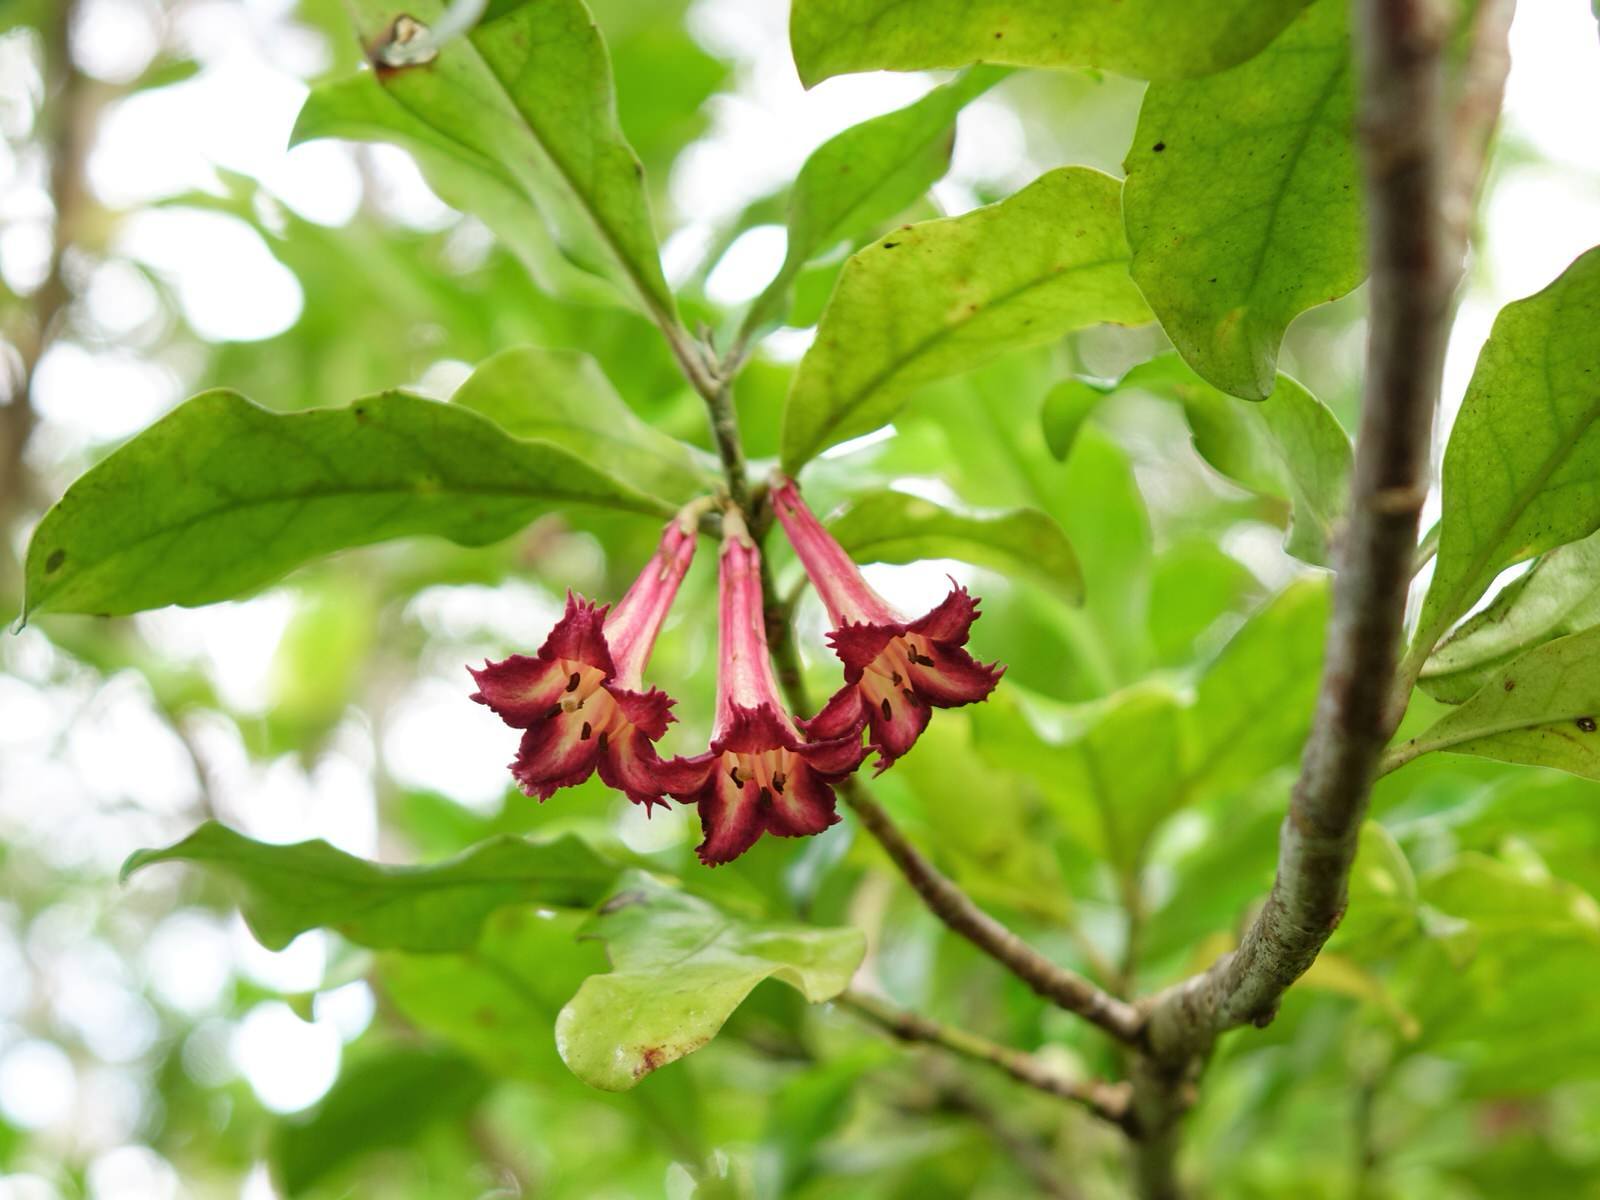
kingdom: Plantae
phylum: Tracheophyta
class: Magnoliopsida
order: Asterales
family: Alseuosmiaceae
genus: Alseuosmia
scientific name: Alseuosmia macrophylla
